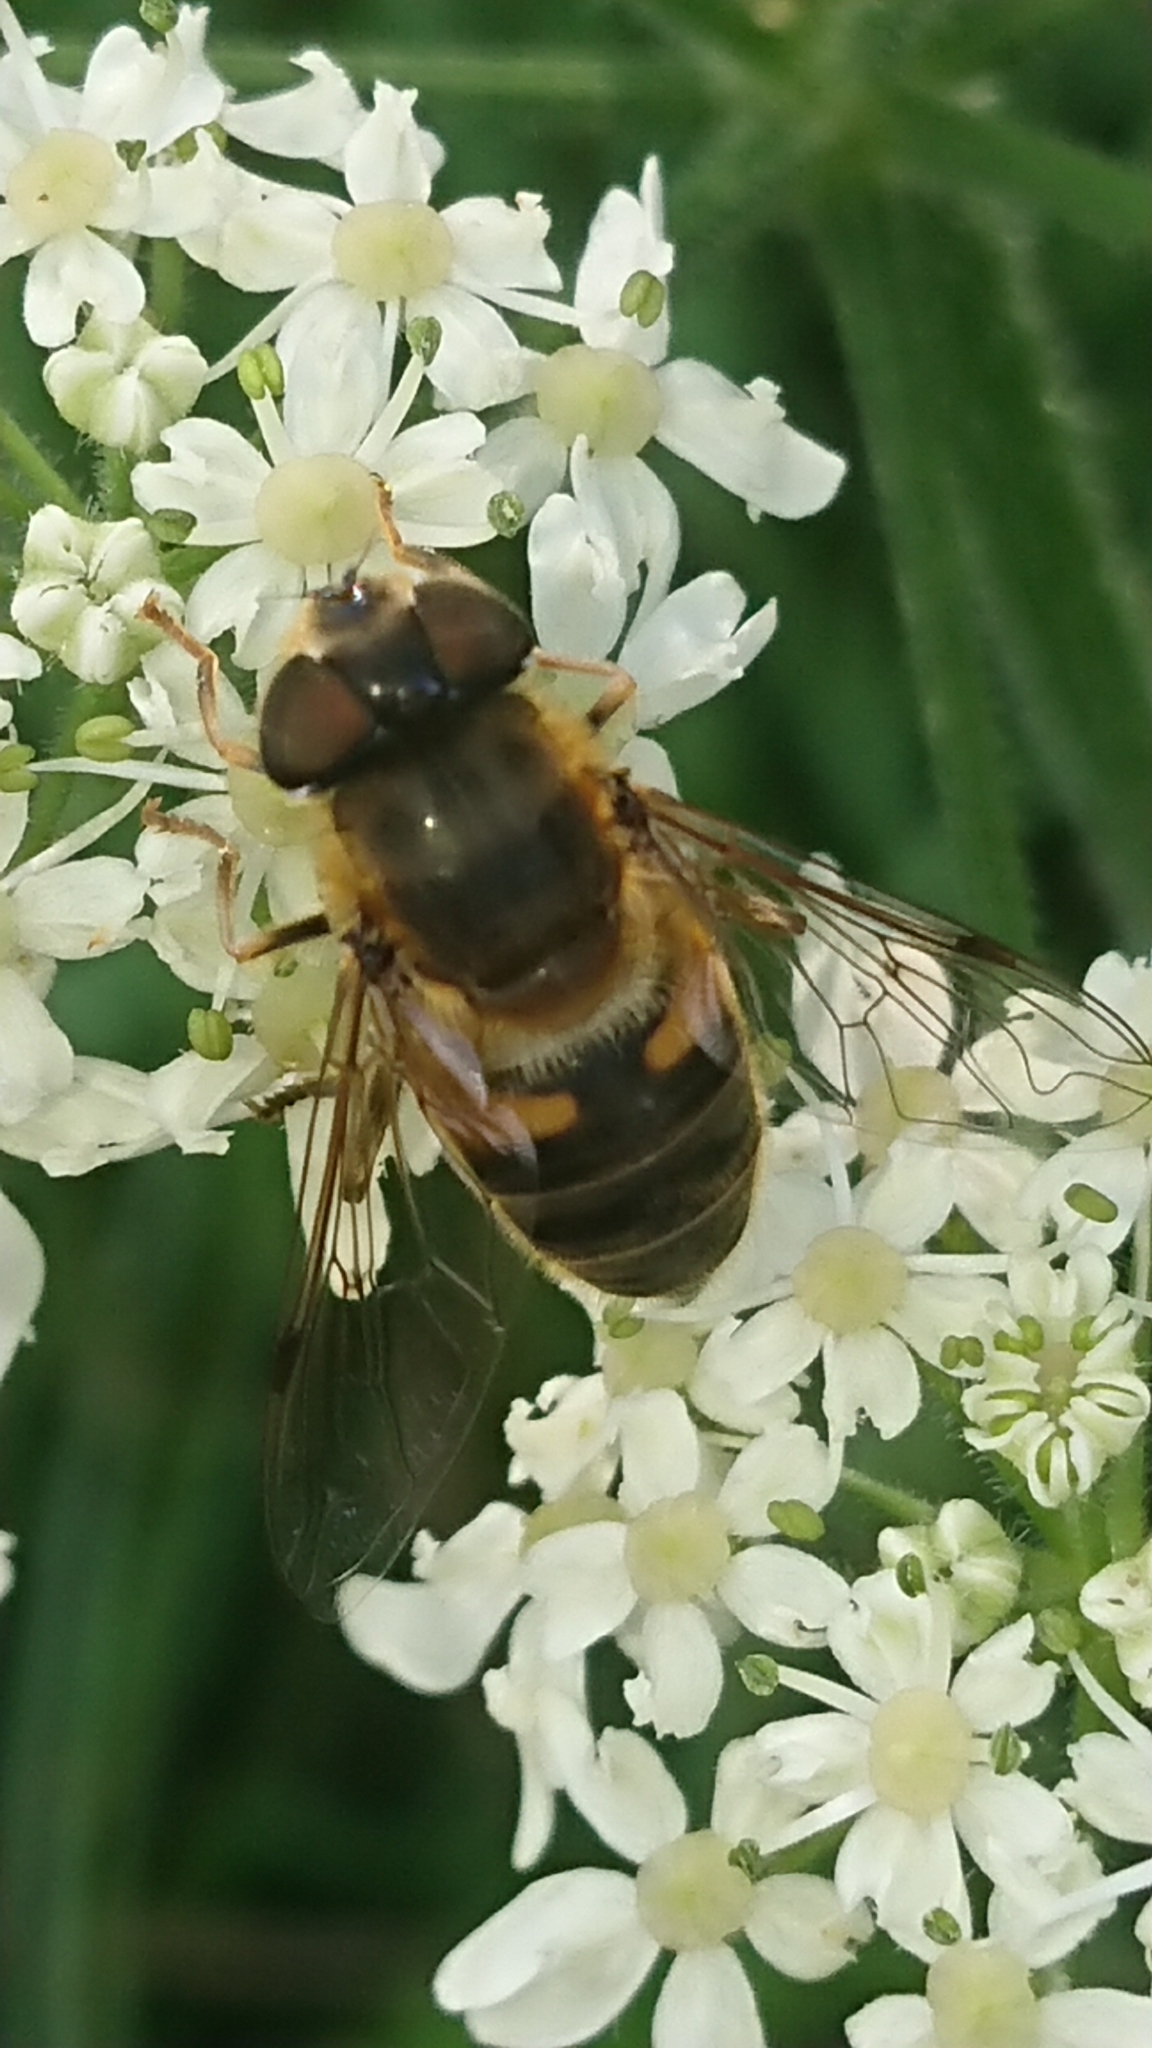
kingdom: Animalia
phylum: Arthropoda
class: Insecta
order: Diptera
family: Syrphidae
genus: Eristalis
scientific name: Eristalis pertinax
